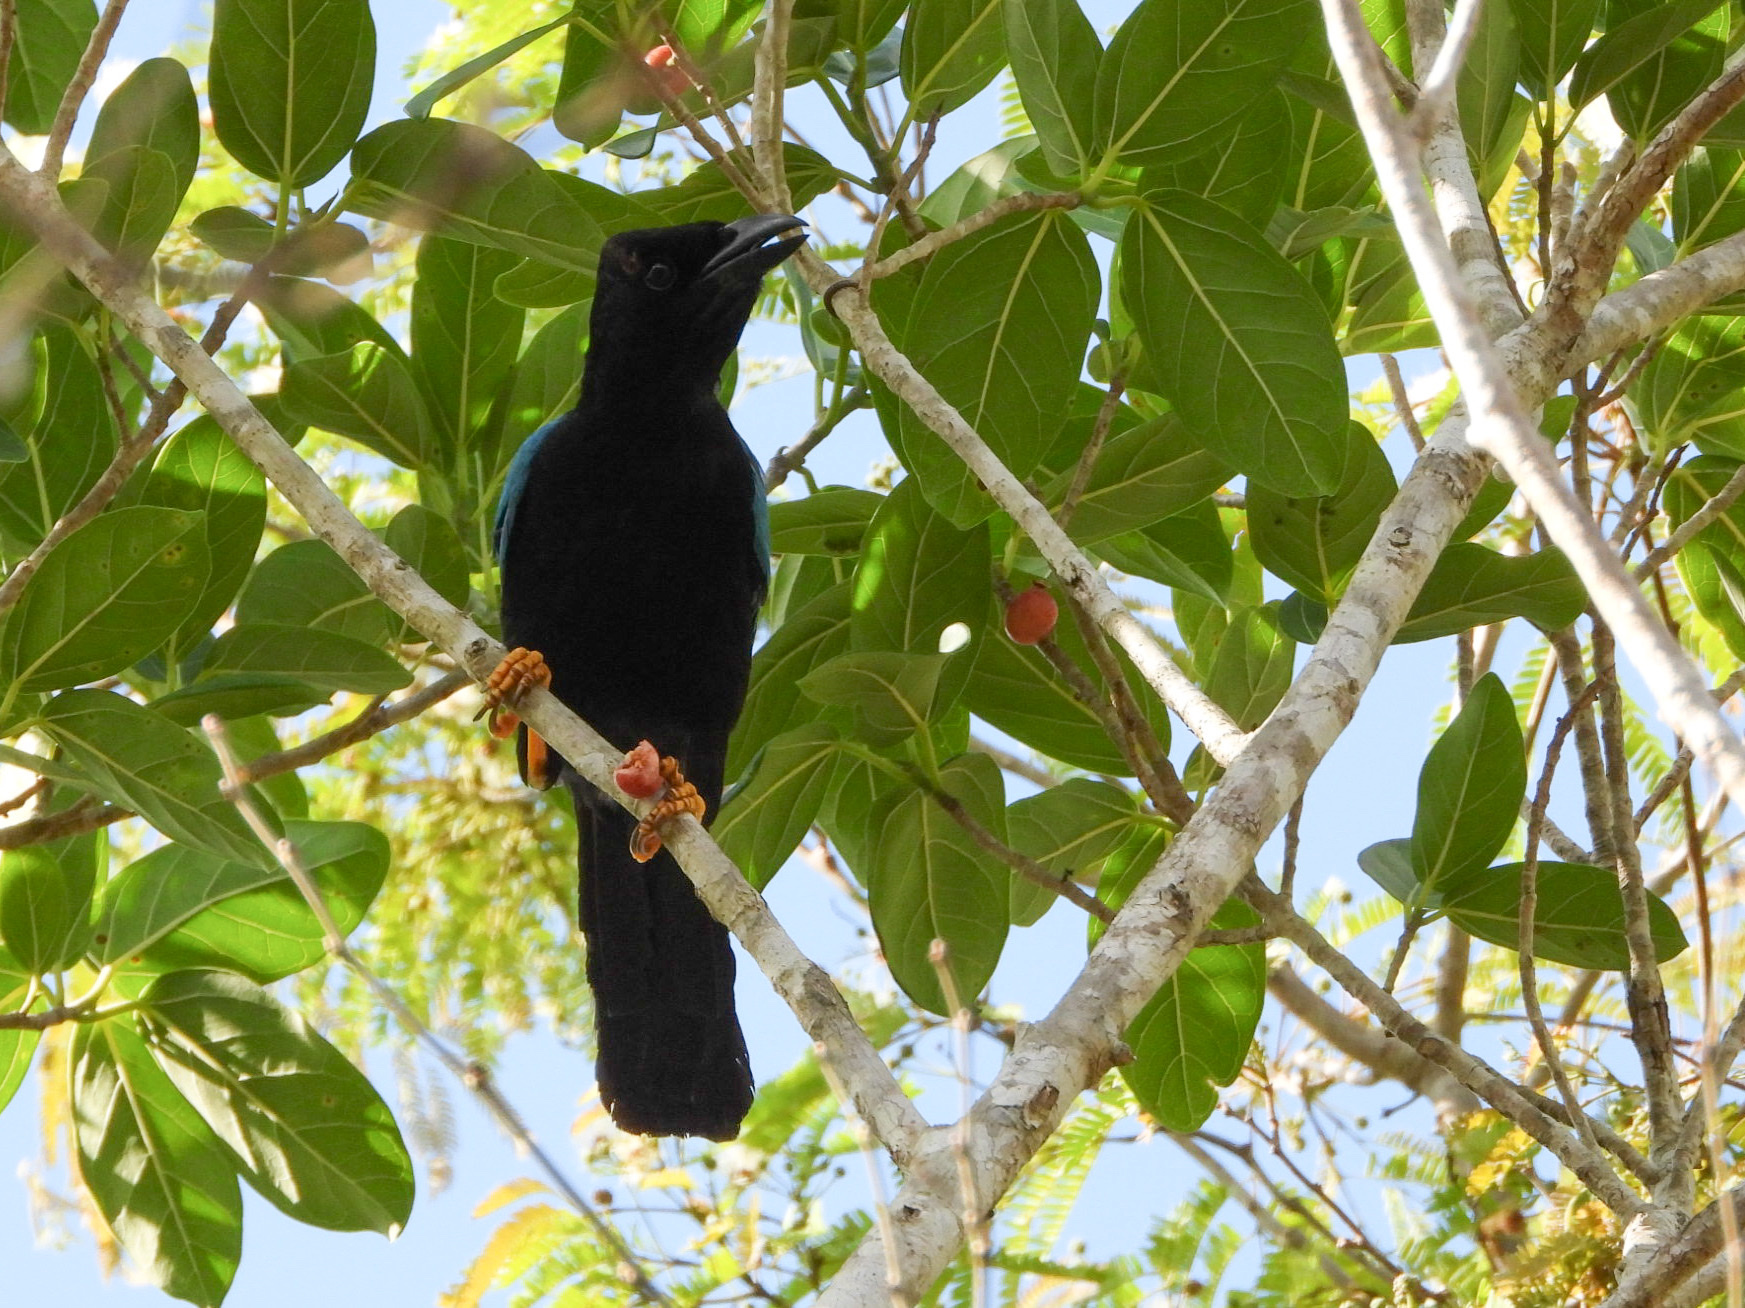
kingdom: Animalia
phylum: Chordata
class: Aves
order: Passeriformes
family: Corvidae
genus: Cyanocorax
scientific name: Cyanocorax yucatanicus
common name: Yucatan jay
